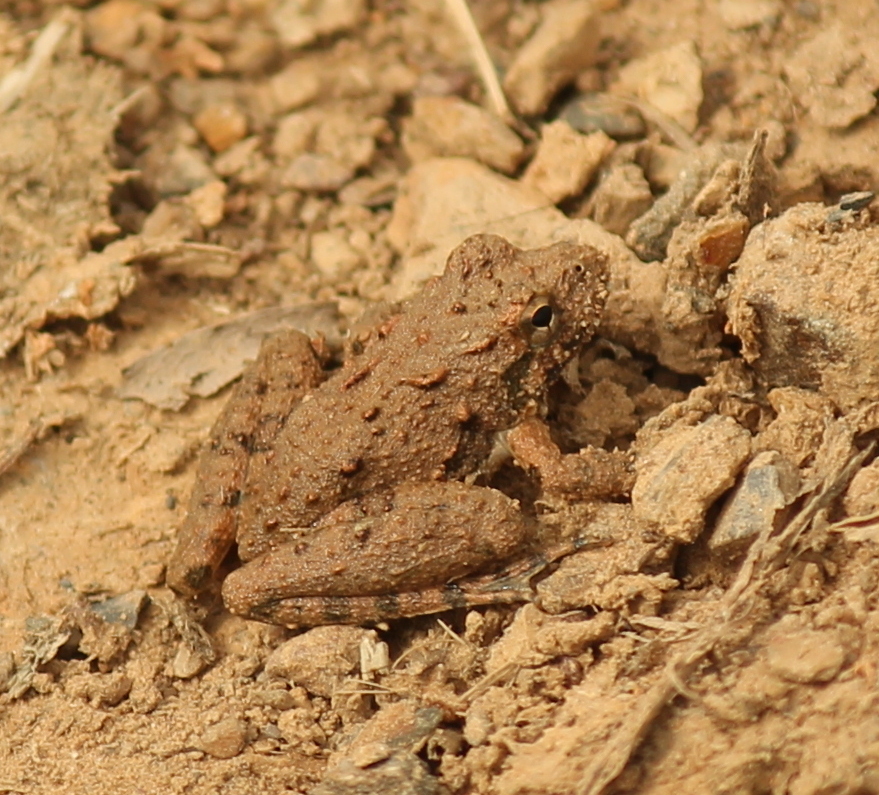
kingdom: Animalia
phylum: Chordata
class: Amphibia
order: Anura
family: Hylidae
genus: Acris
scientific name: Acris blanchardi
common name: Blanchard's cricket frog
